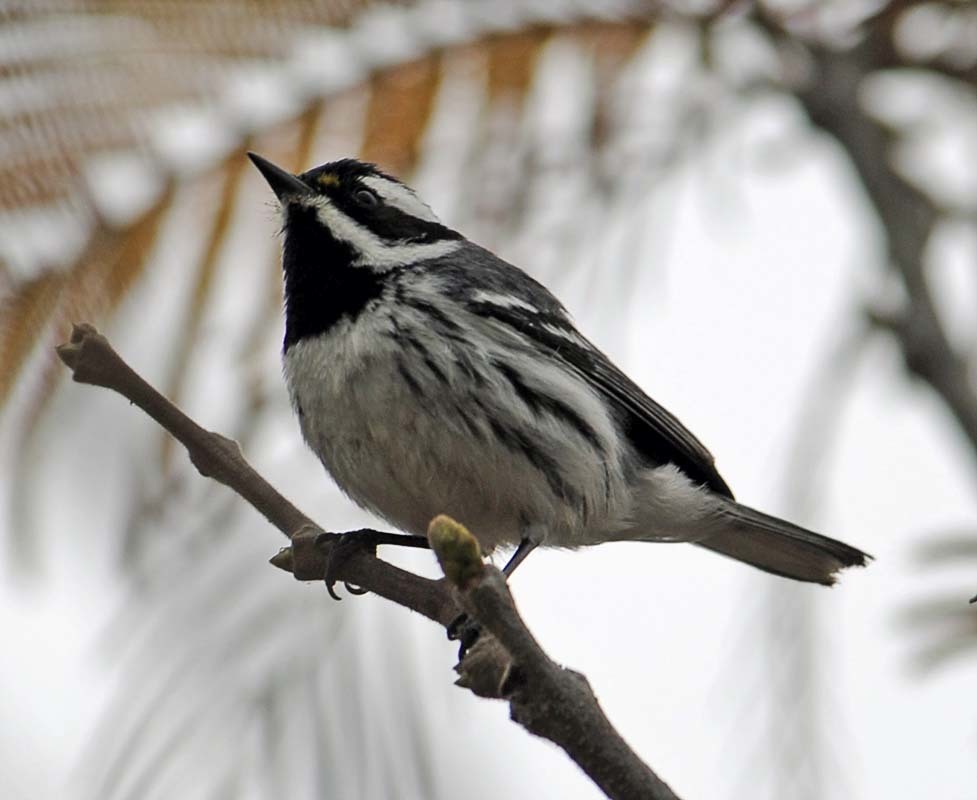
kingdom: Animalia
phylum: Chordata
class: Aves
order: Passeriformes
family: Parulidae
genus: Setophaga
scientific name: Setophaga nigrescens
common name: Black-throated gray warbler
